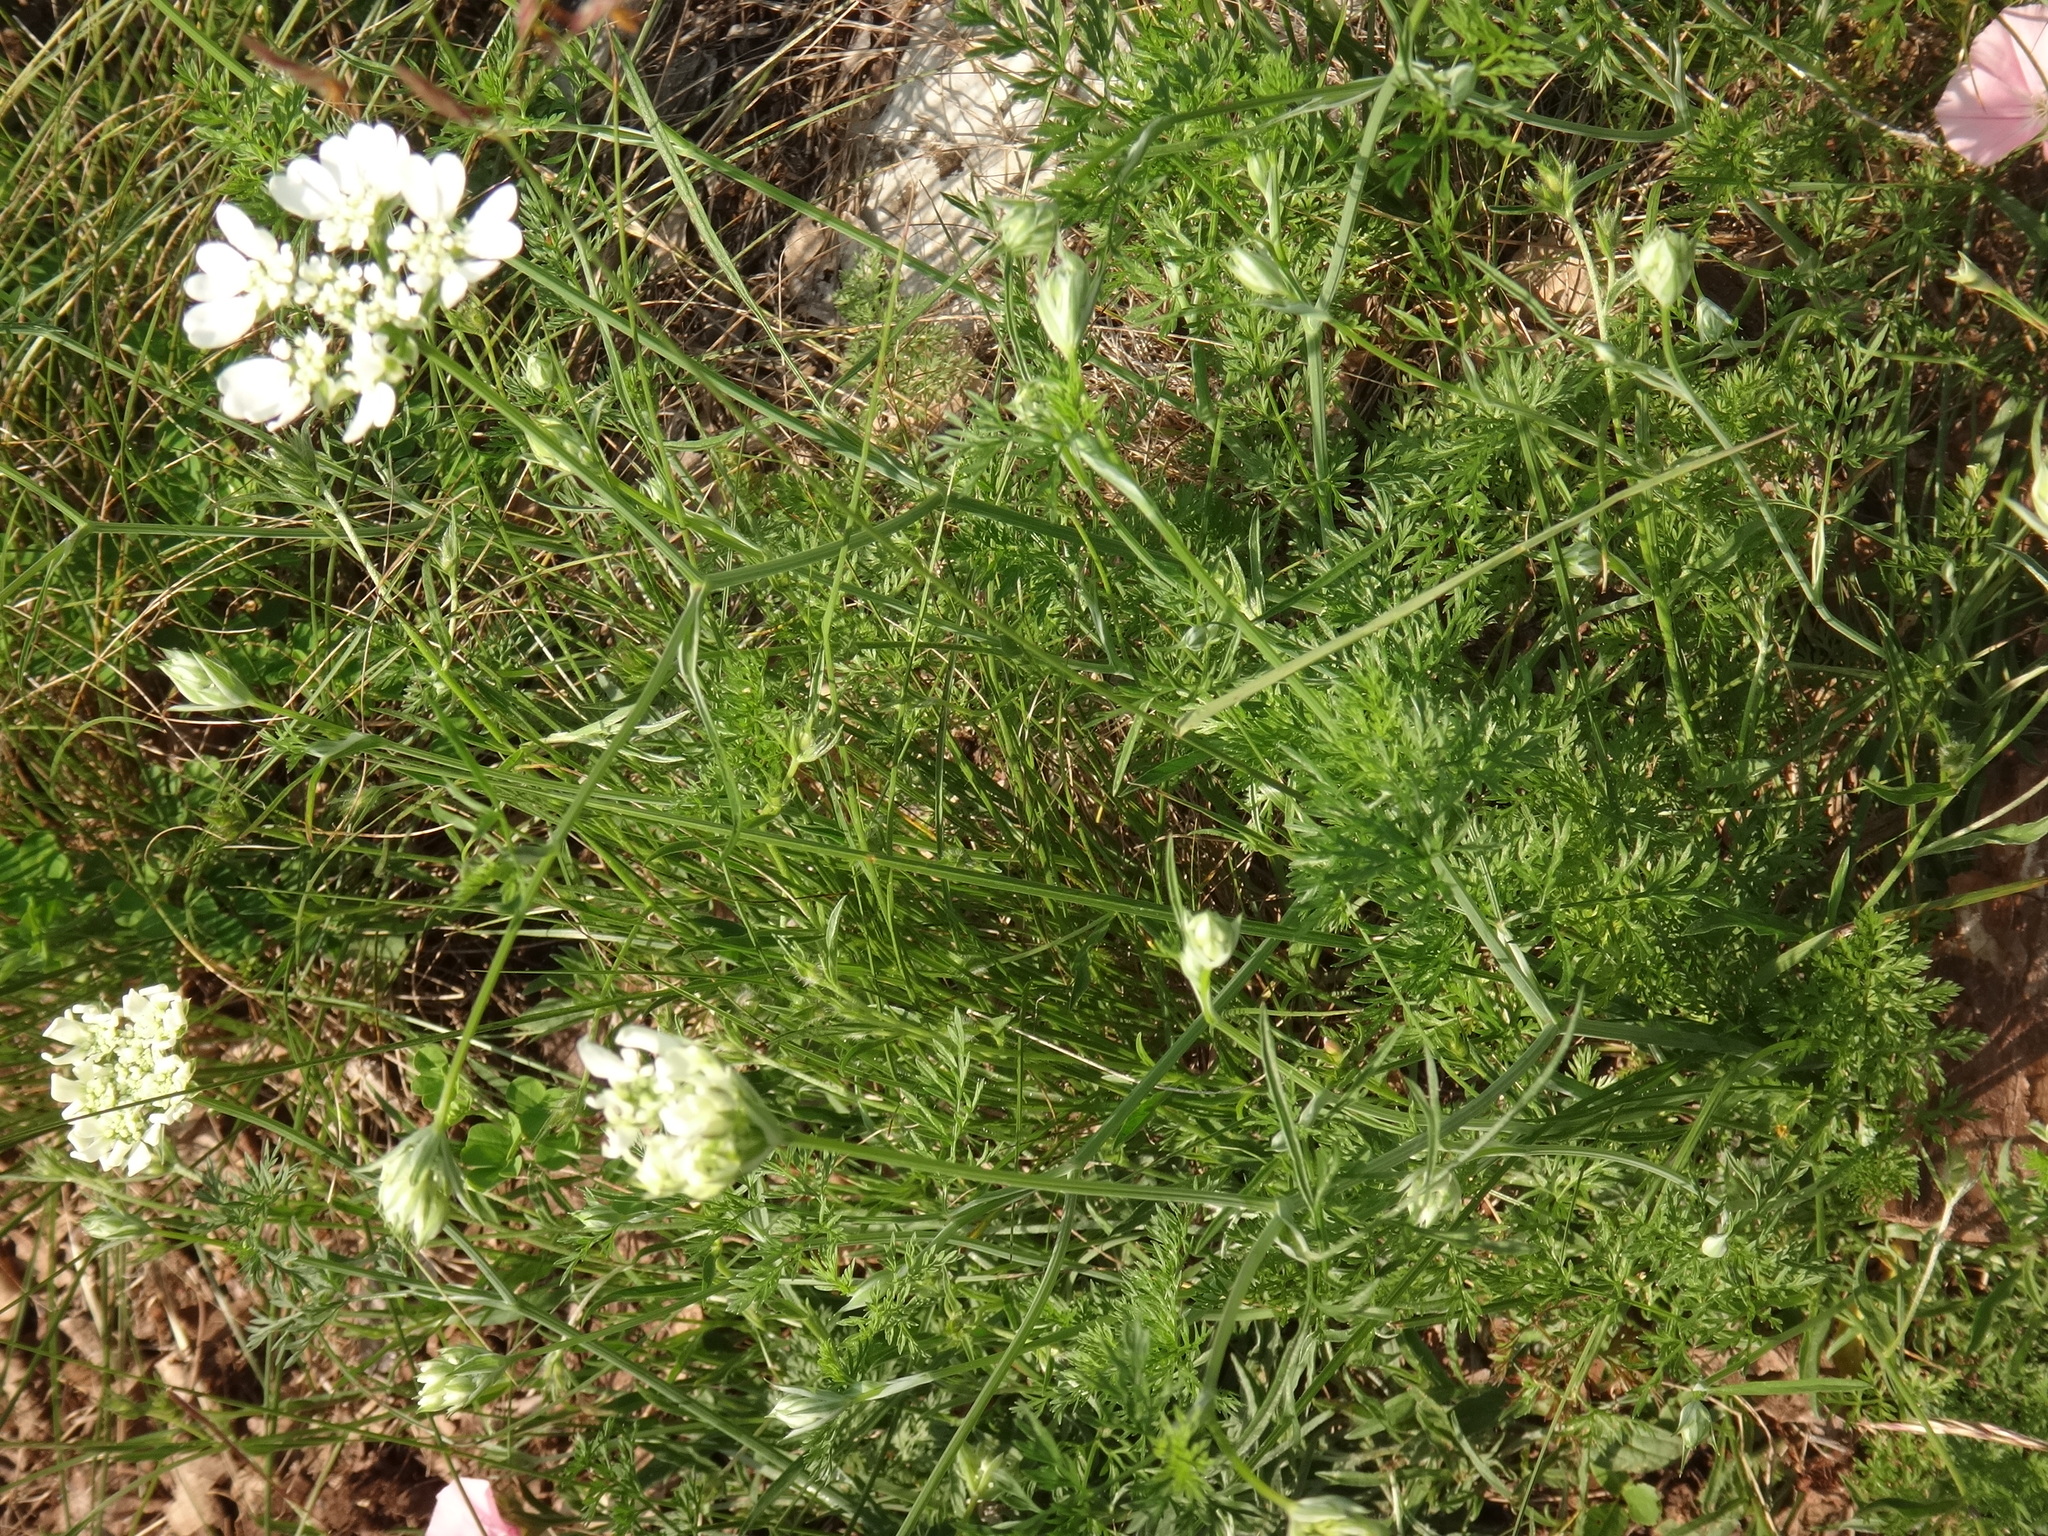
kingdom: Plantae
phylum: Tracheophyta
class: Magnoliopsida
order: Apiales
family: Apiaceae
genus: Orlaya
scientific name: Orlaya grandiflora
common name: White lace flower
